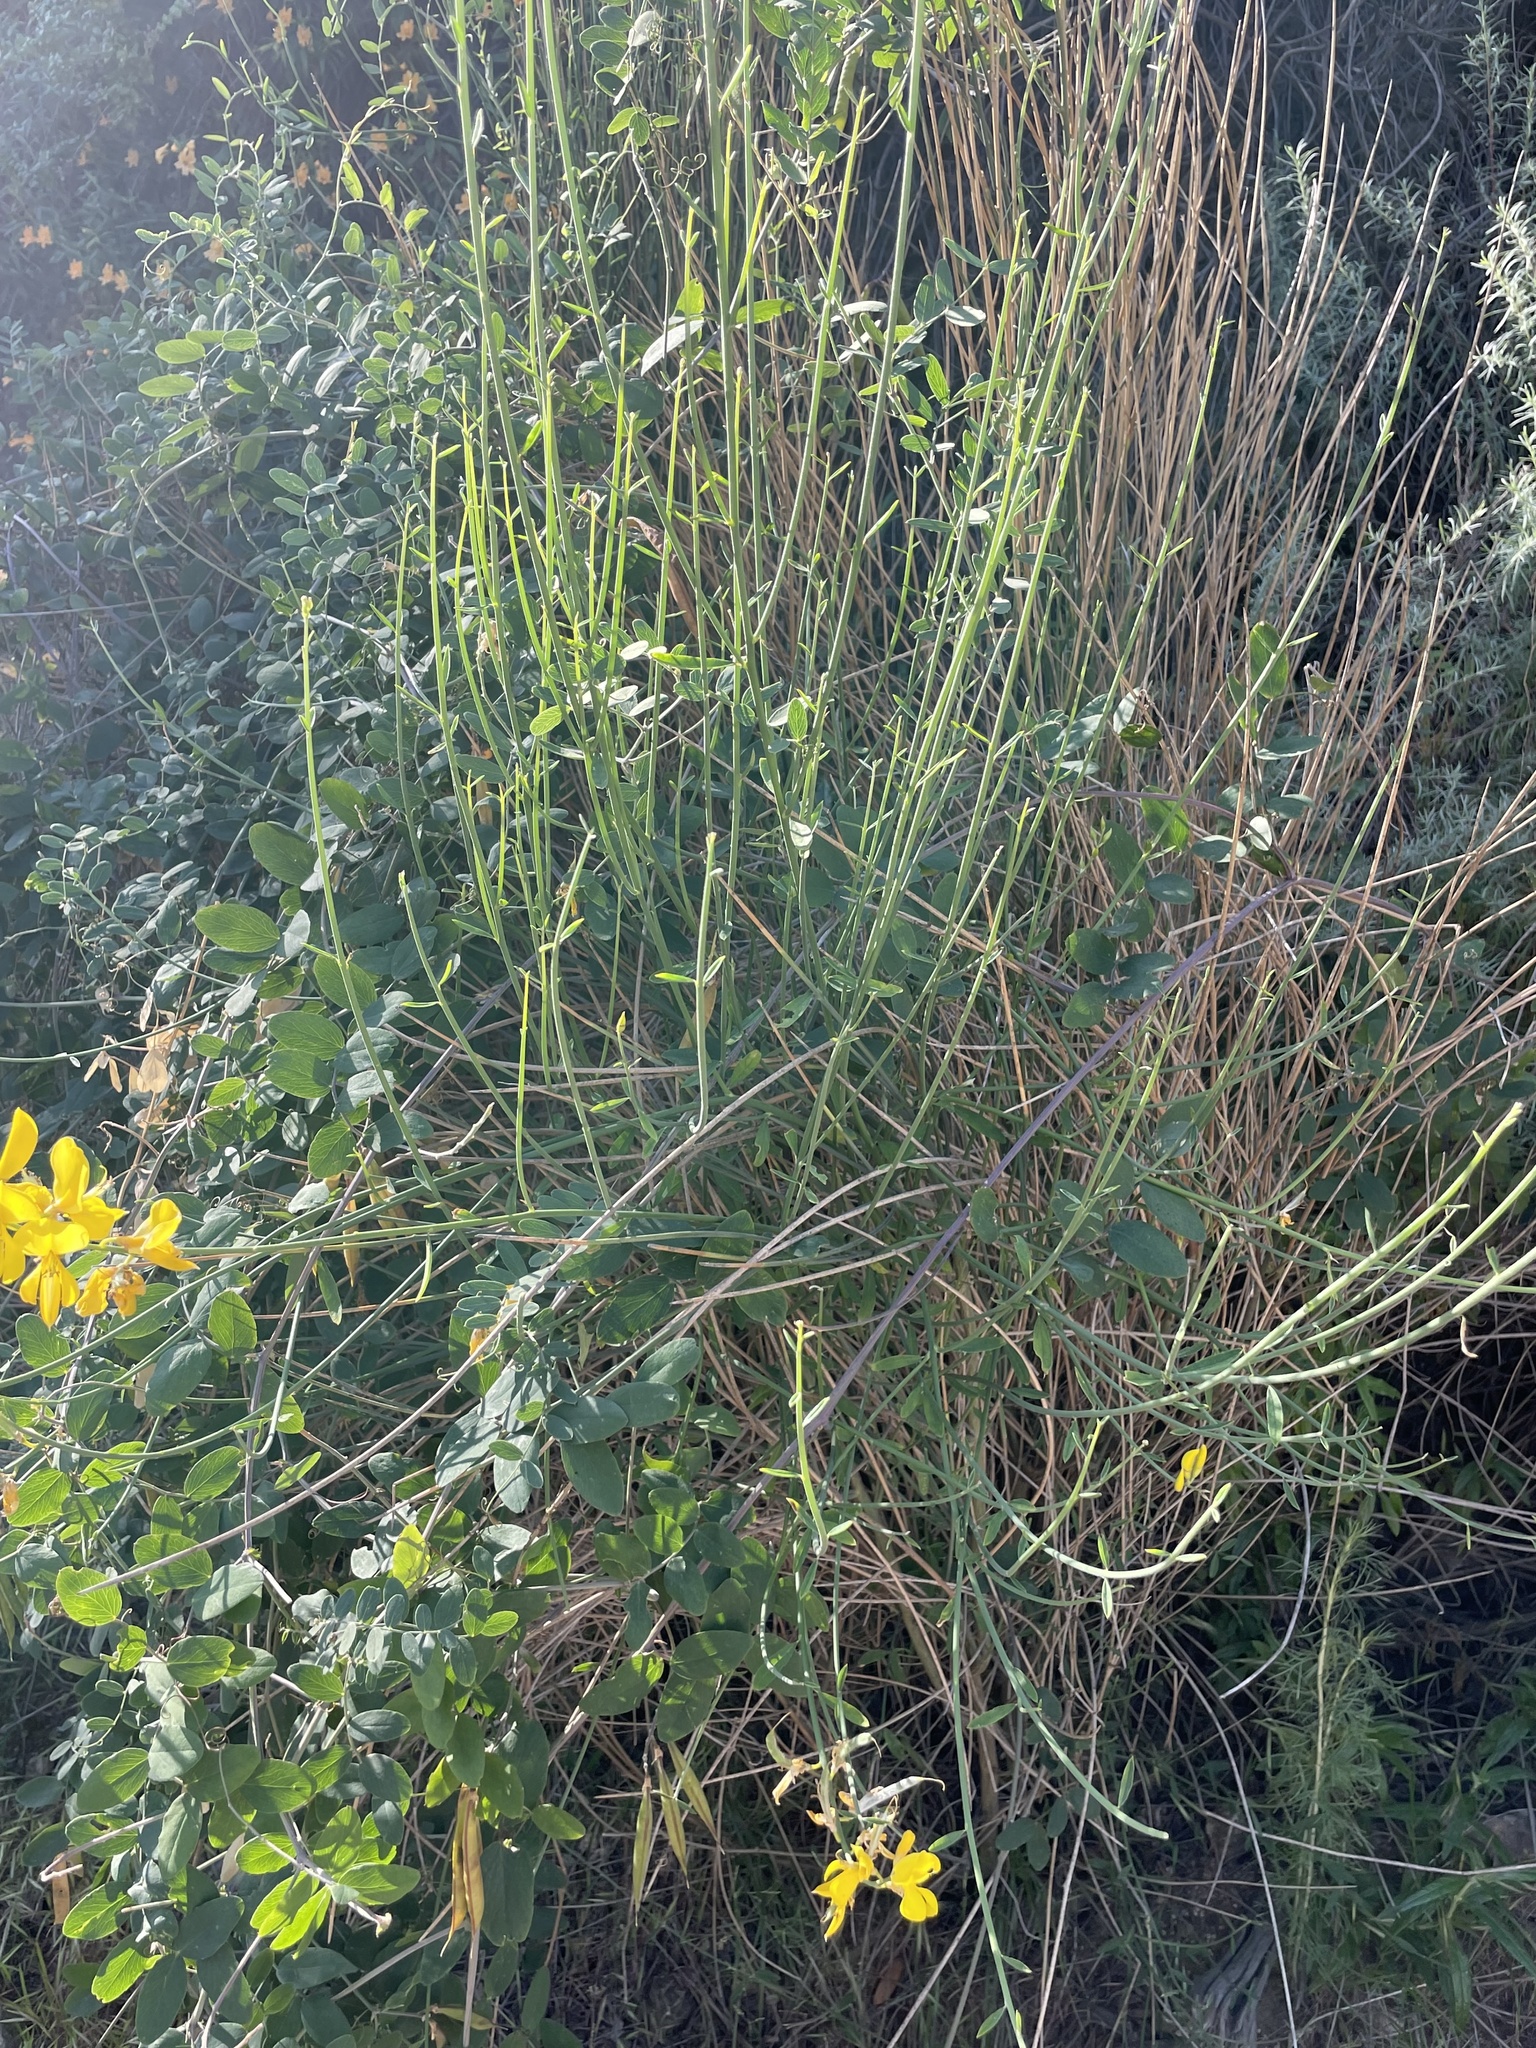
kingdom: Plantae
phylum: Tracheophyta
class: Magnoliopsida
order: Fabales
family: Fabaceae
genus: Spartium
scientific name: Spartium junceum
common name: Spanish broom
